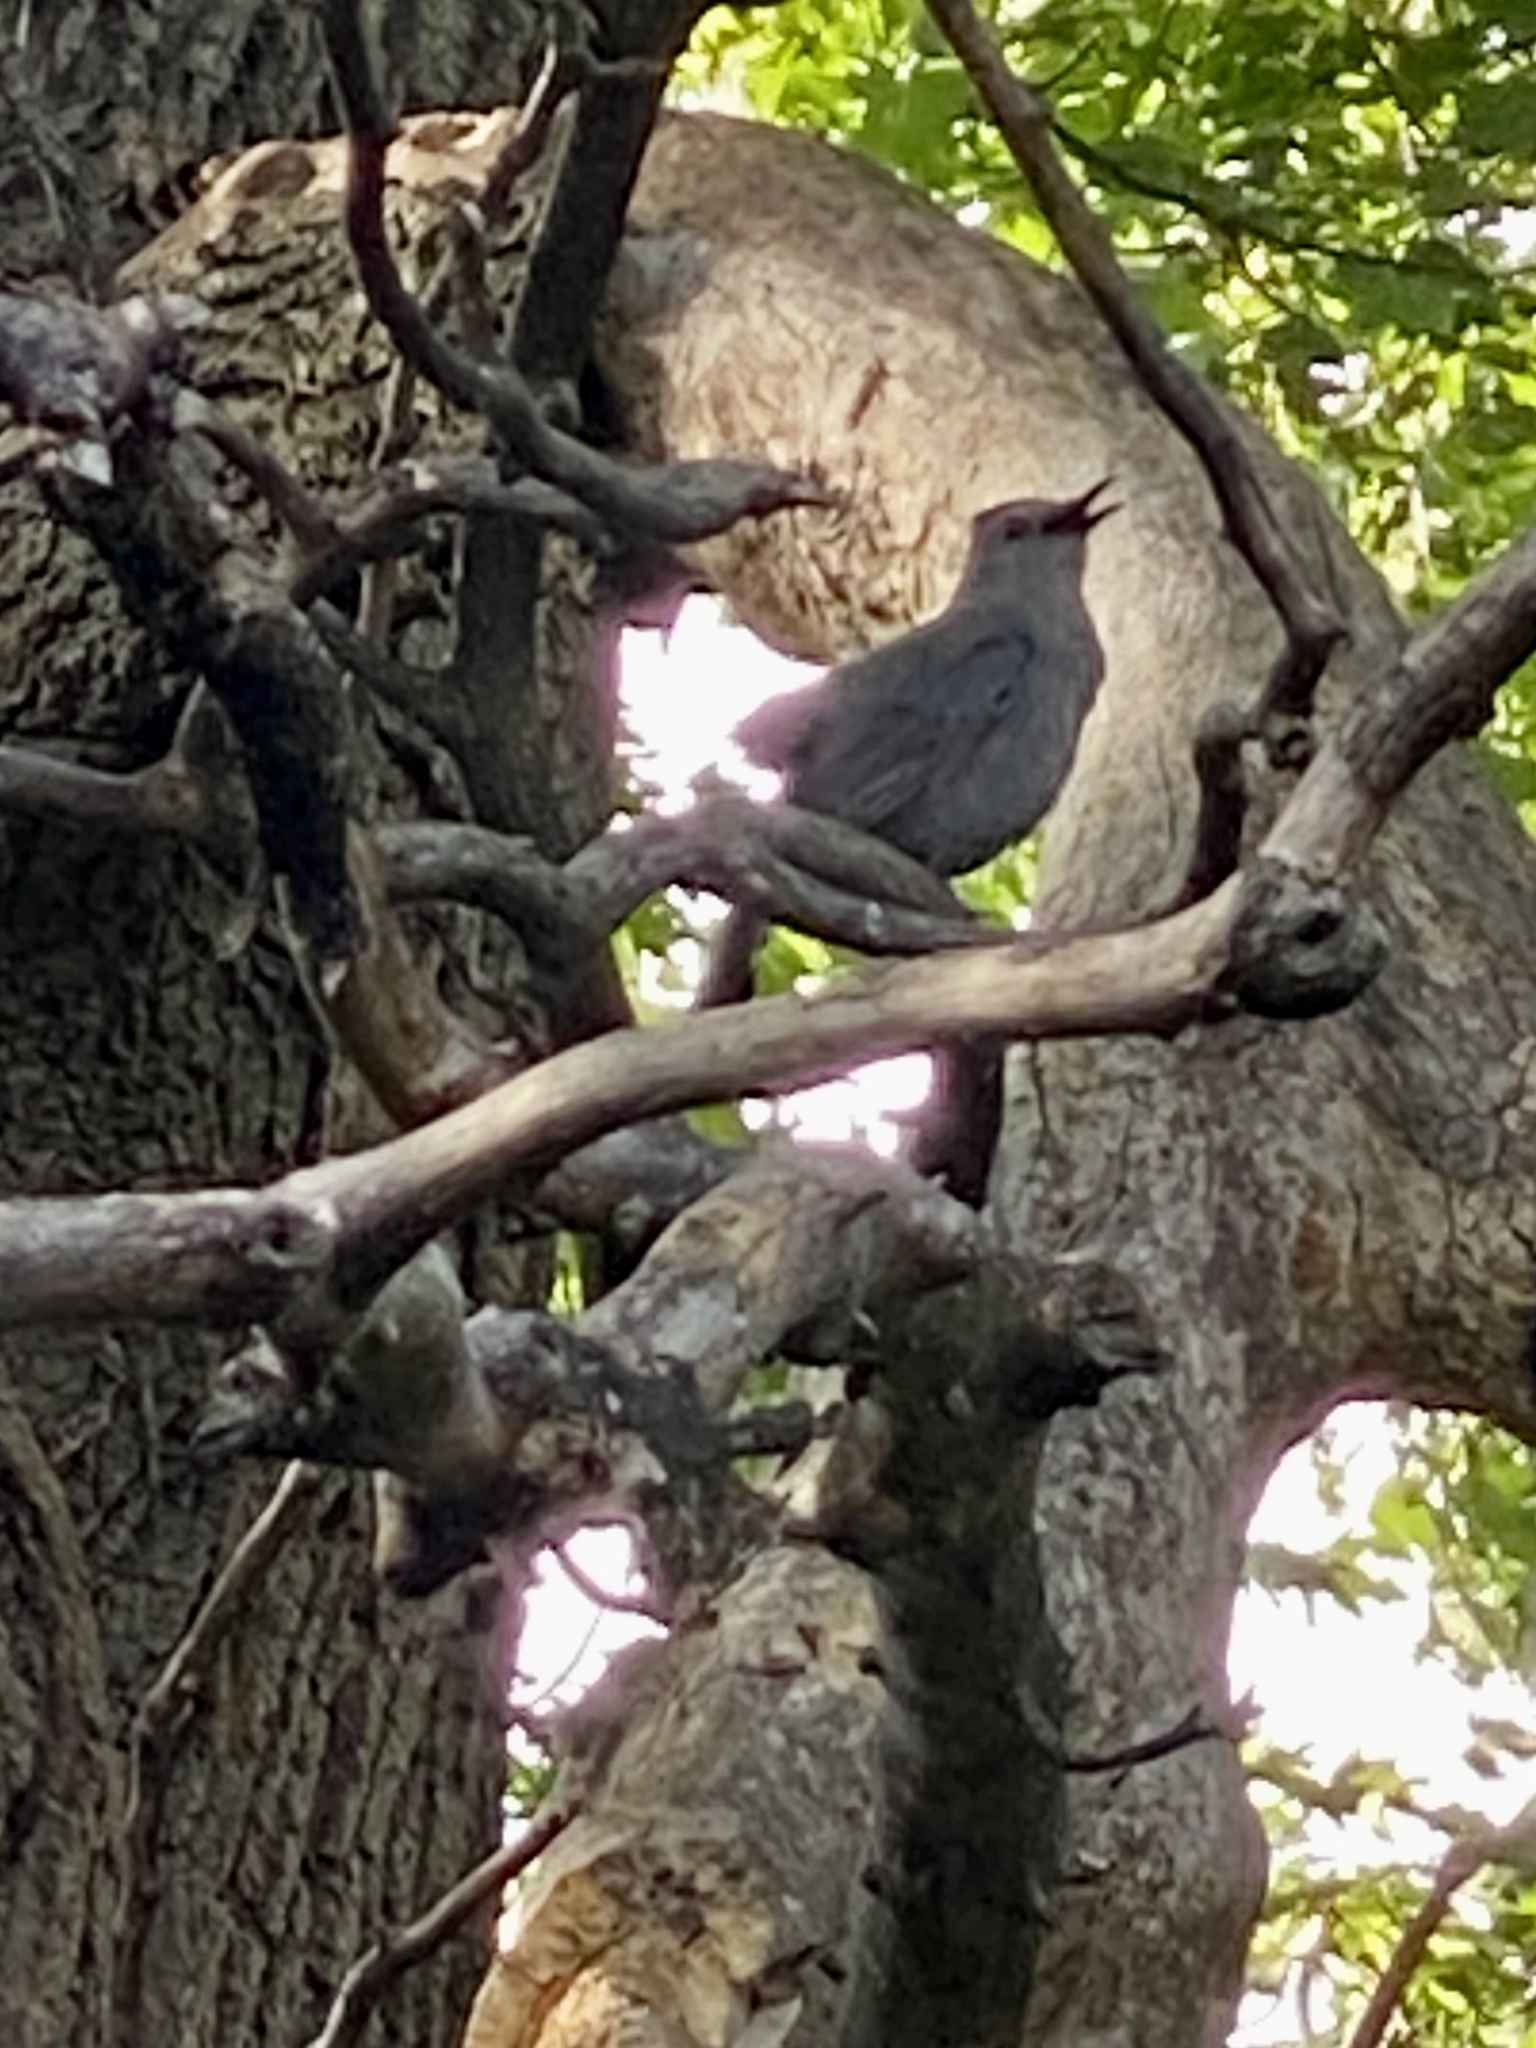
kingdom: Animalia
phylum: Chordata
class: Aves
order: Passeriformes
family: Mimidae
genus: Dumetella
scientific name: Dumetella carolinensis
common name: Gray catbird
